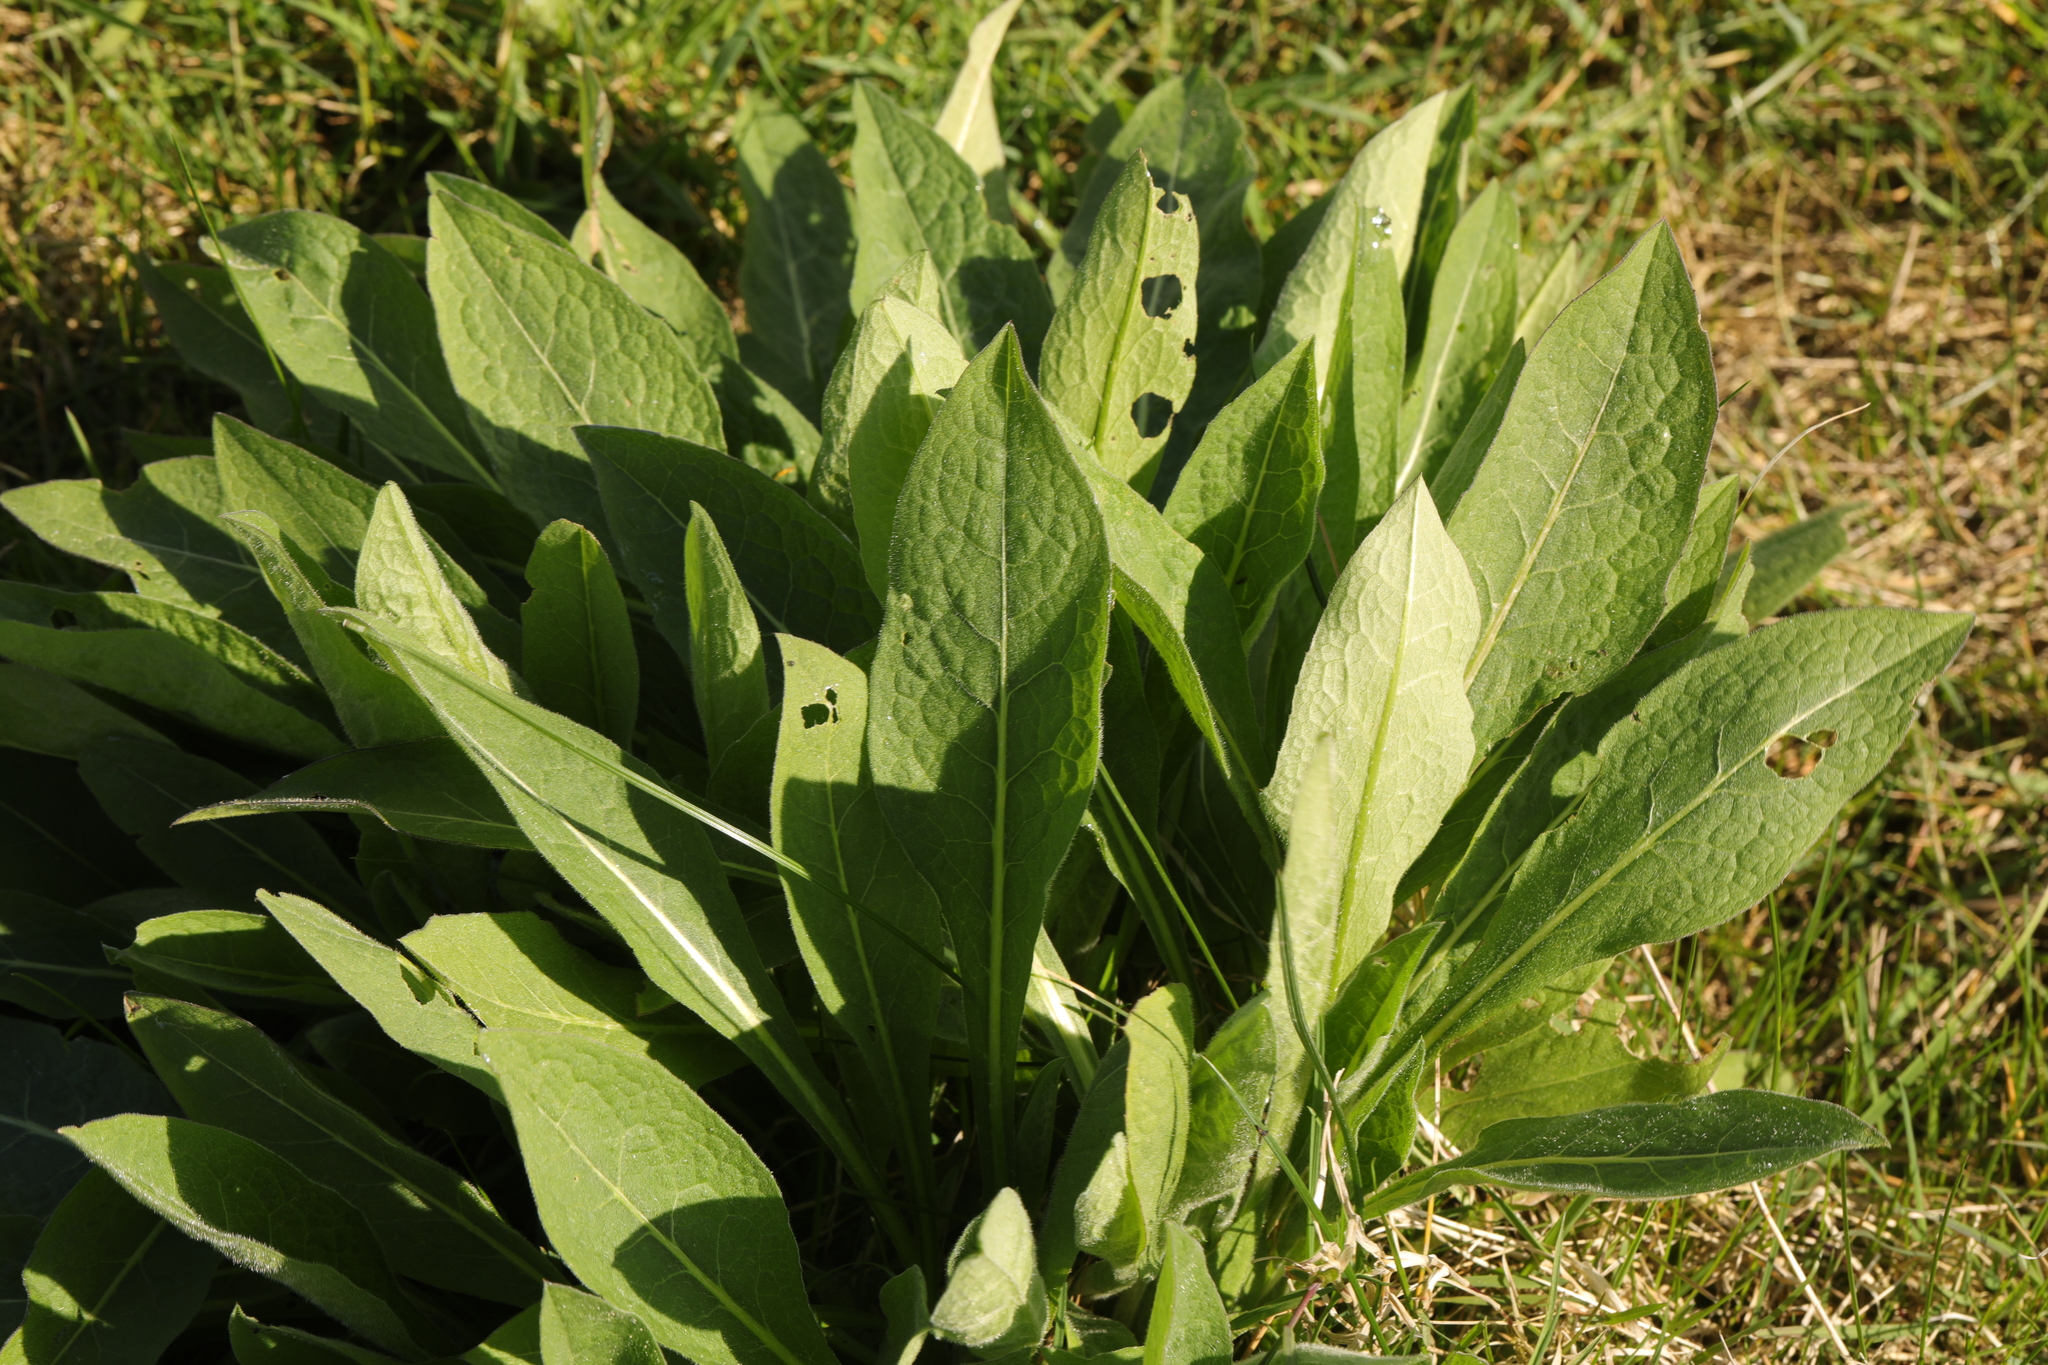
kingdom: Plantae
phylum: Tracheophyta
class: Magnoliopsida
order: Asterales
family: Asteraceae
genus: Centaurea
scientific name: Centaurea nigra
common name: Lesser knapweed
